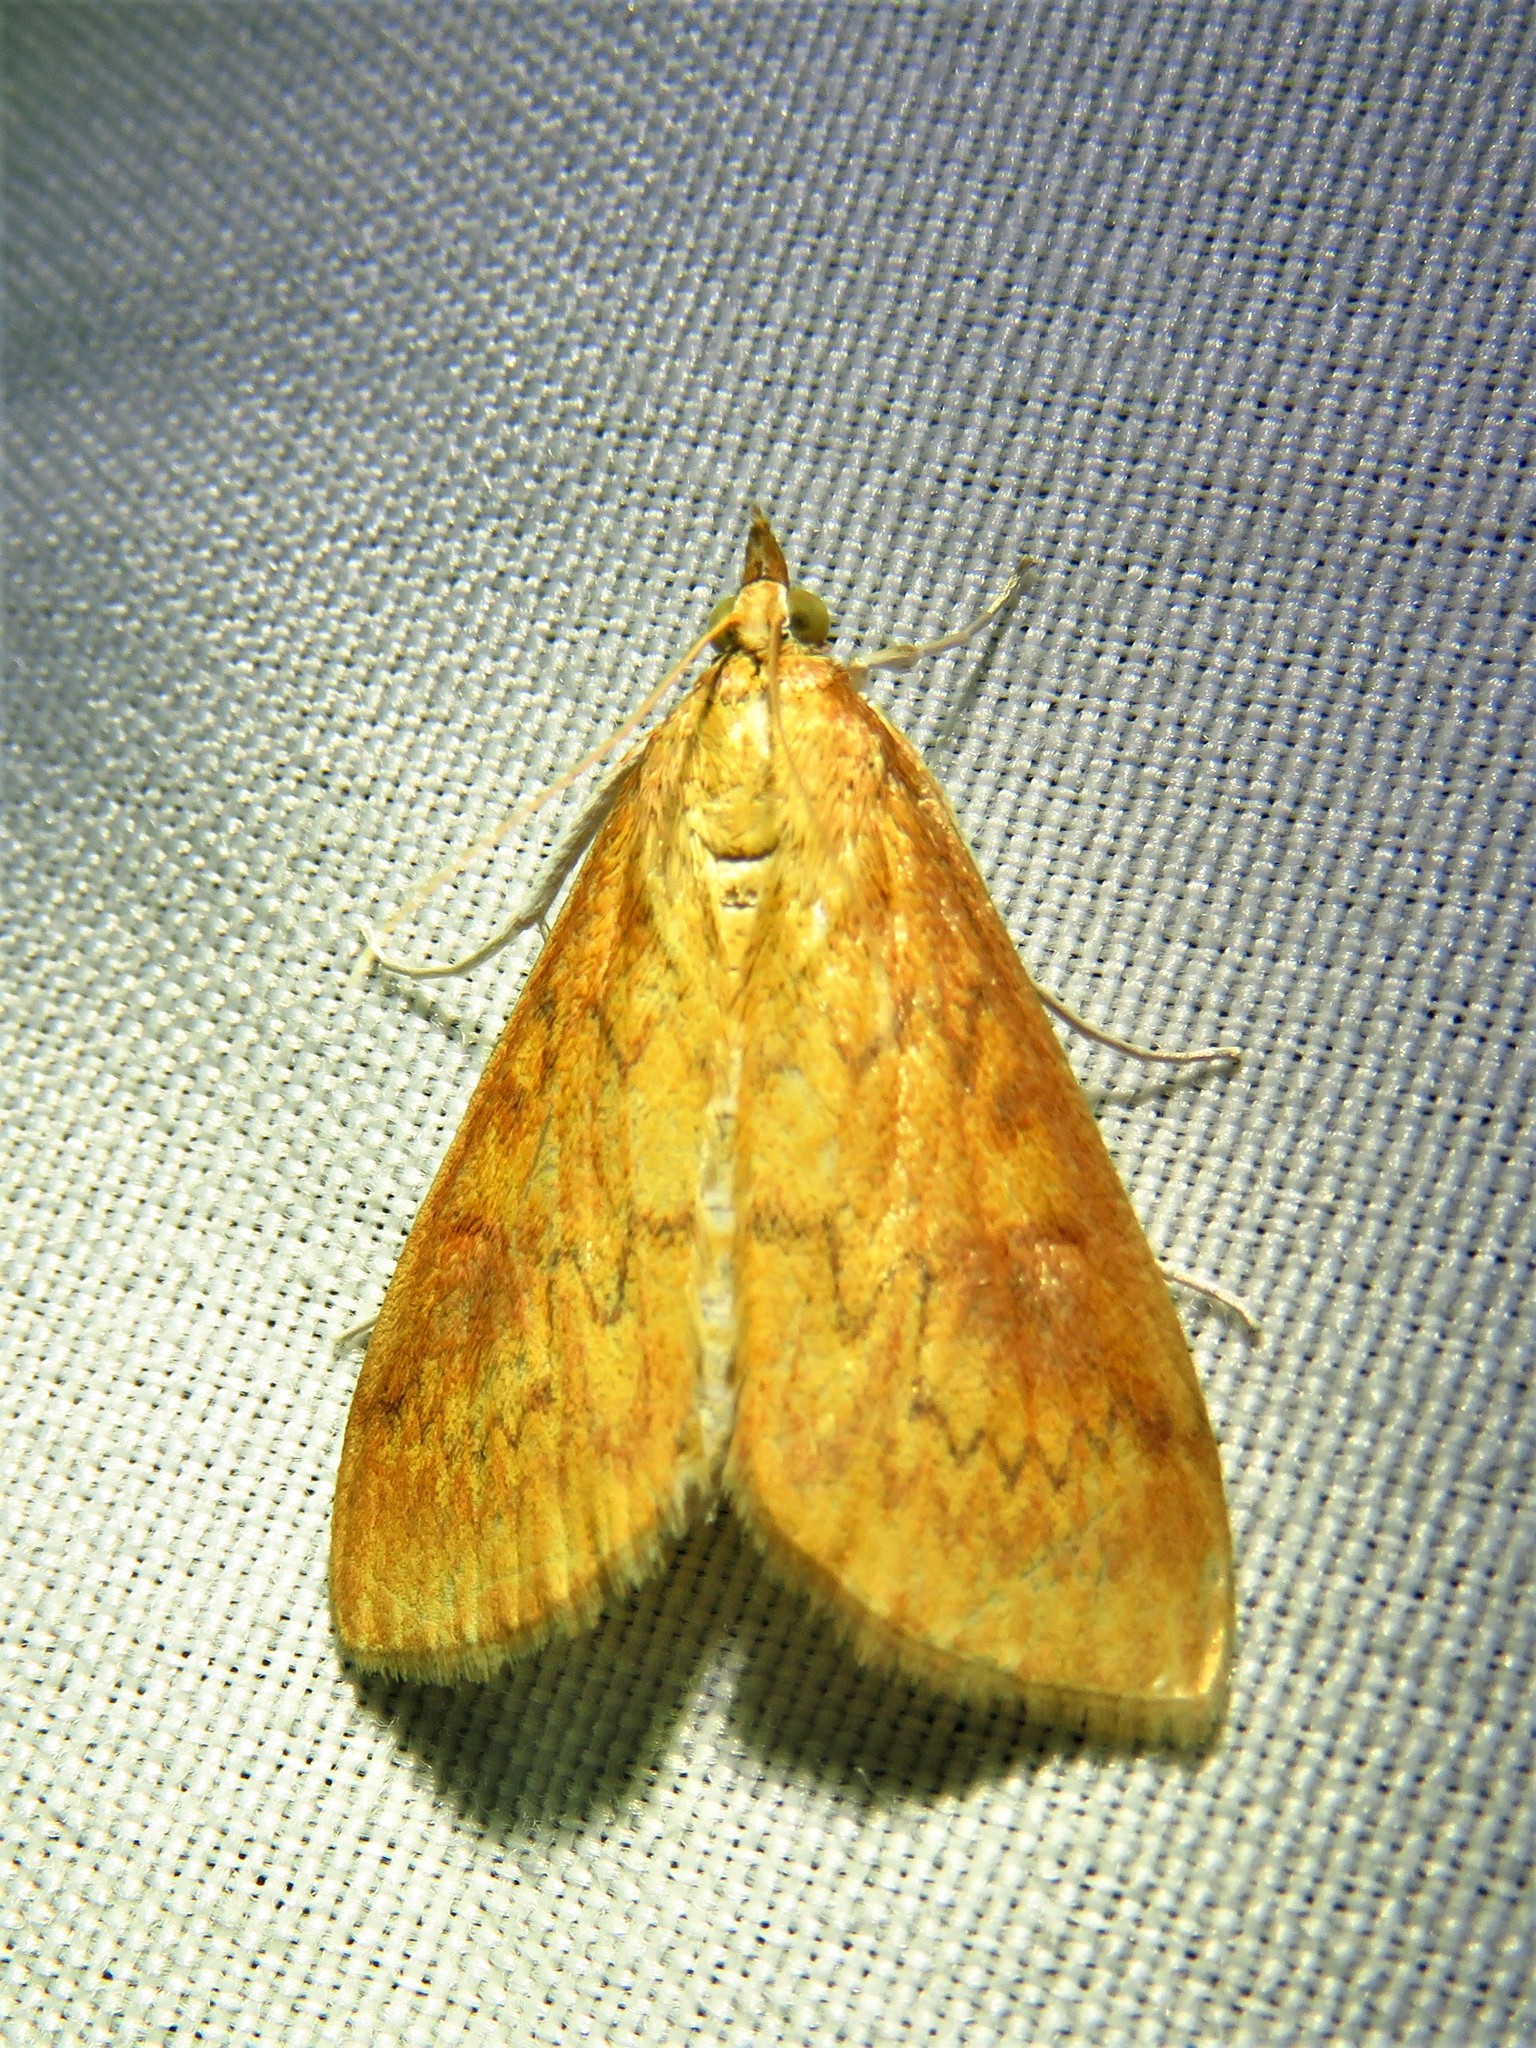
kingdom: Animalia
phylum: Arthropoda
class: Insecta
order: Lepidoptera
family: Crambidae
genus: Ostrinia
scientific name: Ostrinia penitalis
